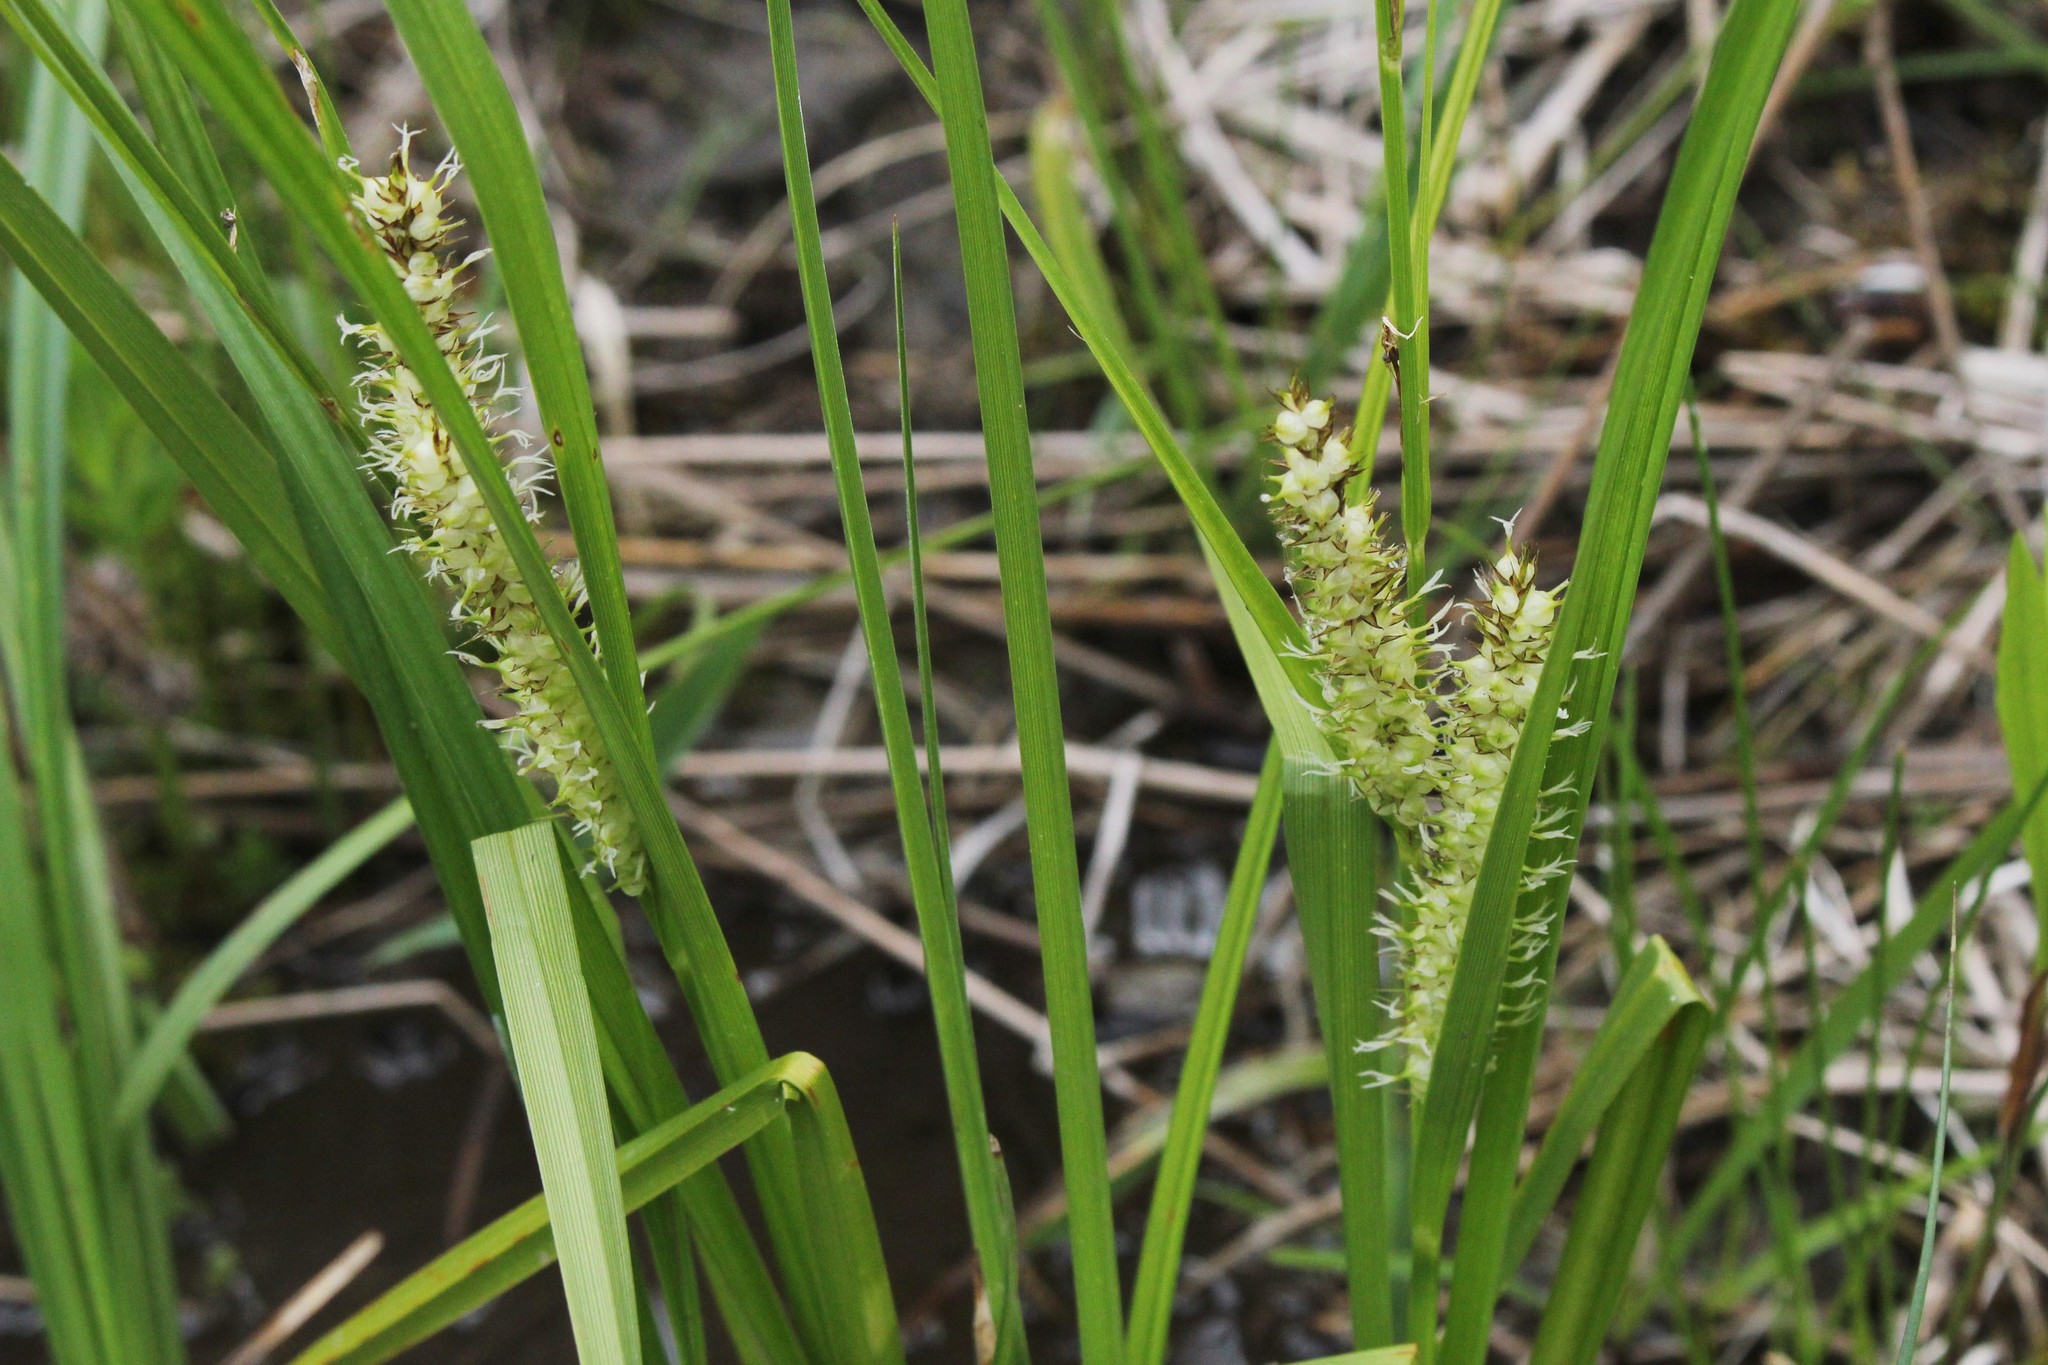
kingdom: Plantae
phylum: Tracheophyta
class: Liliopsida
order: Poales
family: Cyperaceae
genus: Carex
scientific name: Carex vesicaria
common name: Bladder-sedge
